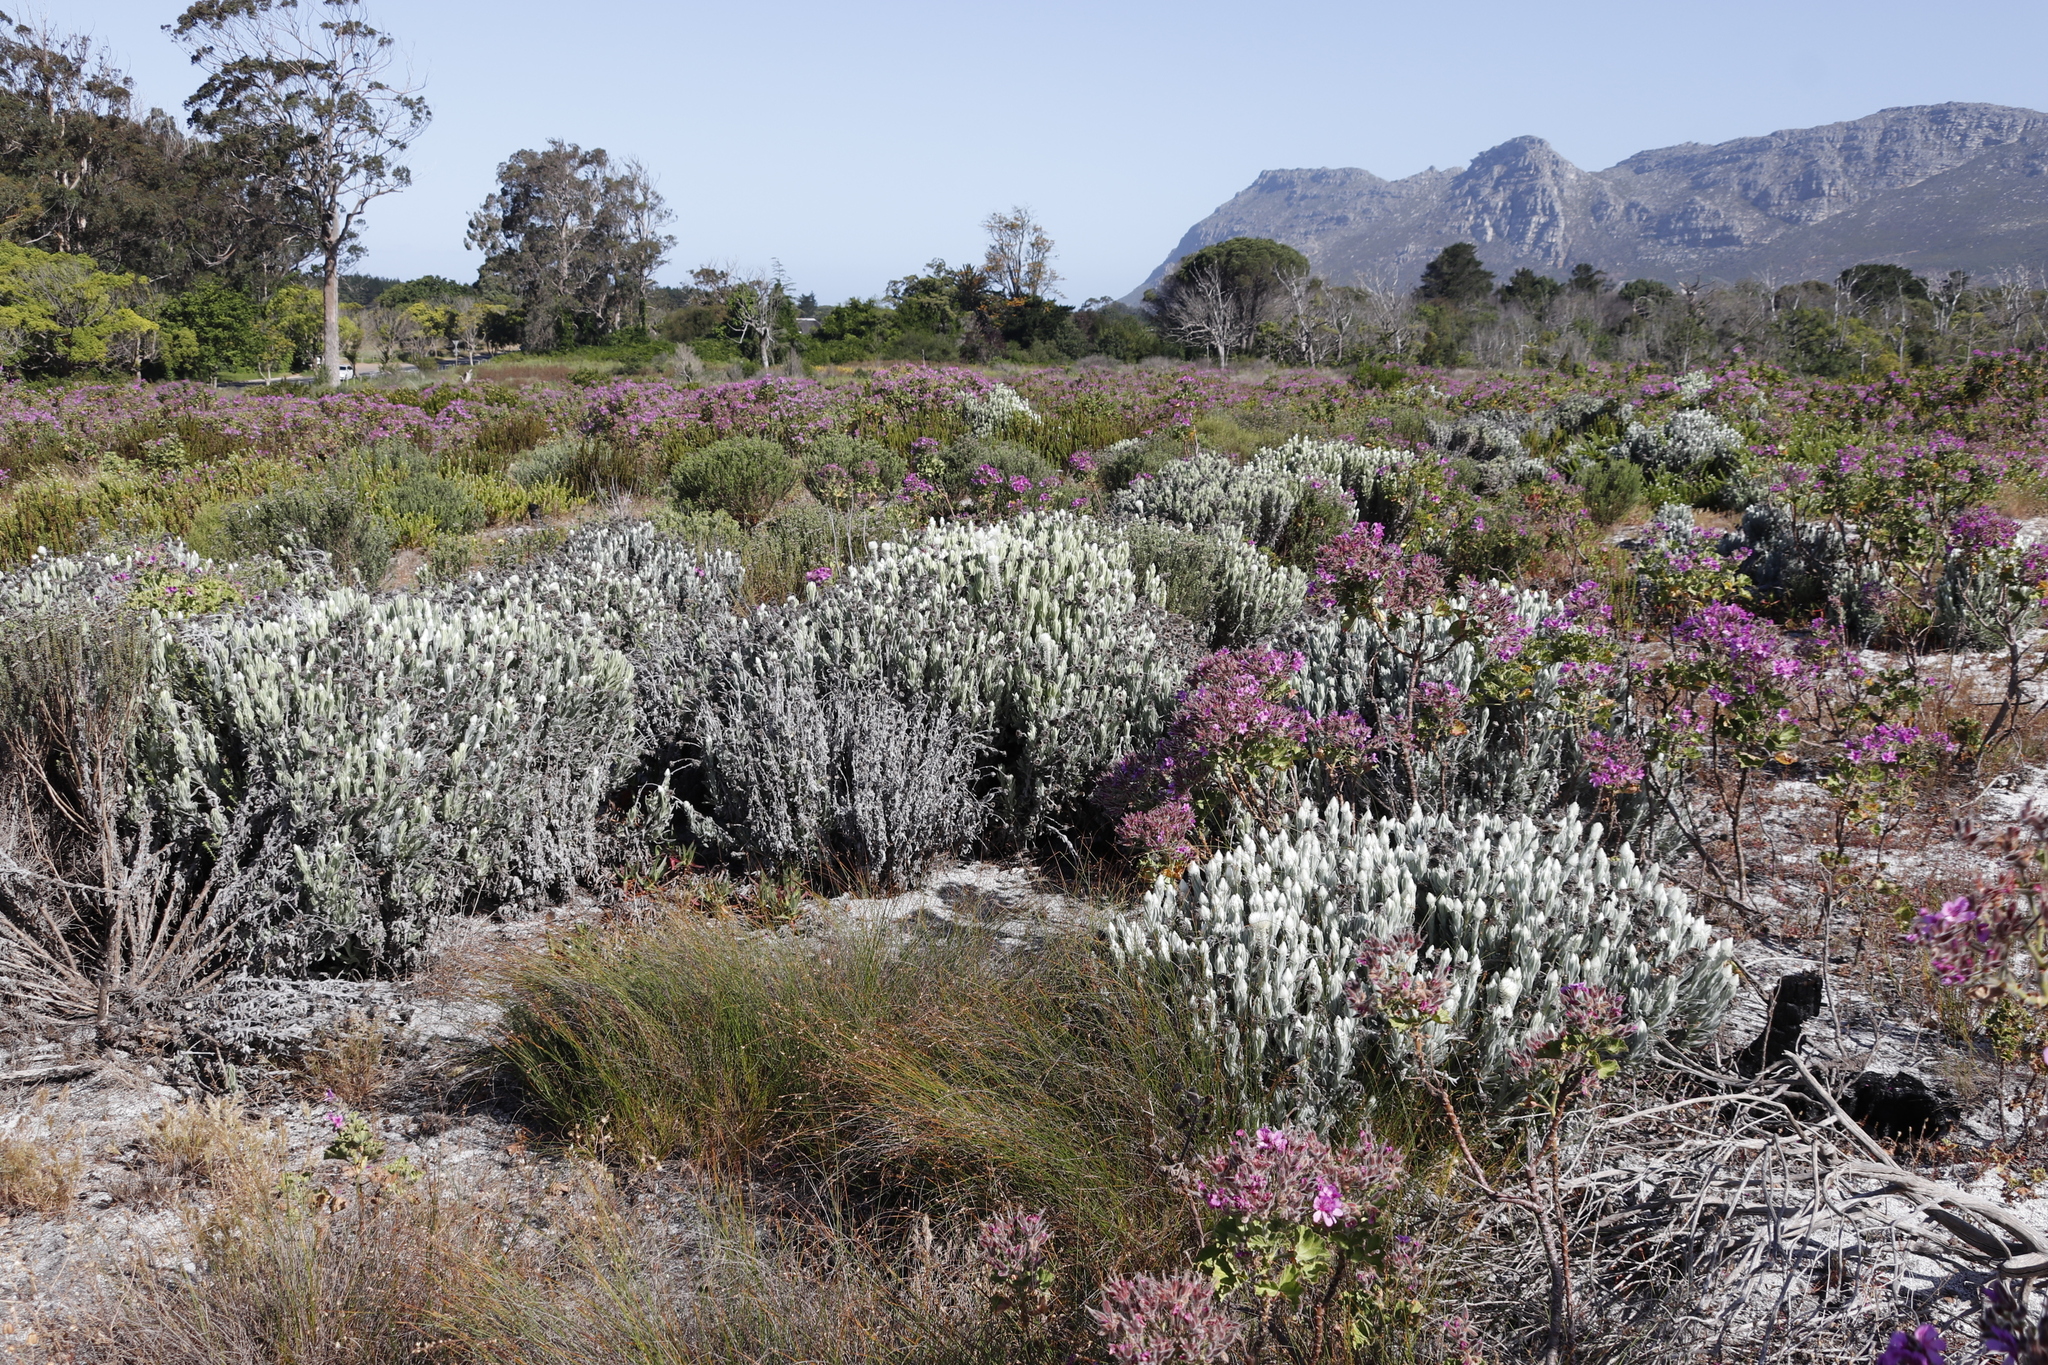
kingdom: Plantae
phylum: Tracheophyta
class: Magnoliopsida
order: Asterales
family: Asteraceae
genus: Syncarpha
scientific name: Syncarpha vestita
